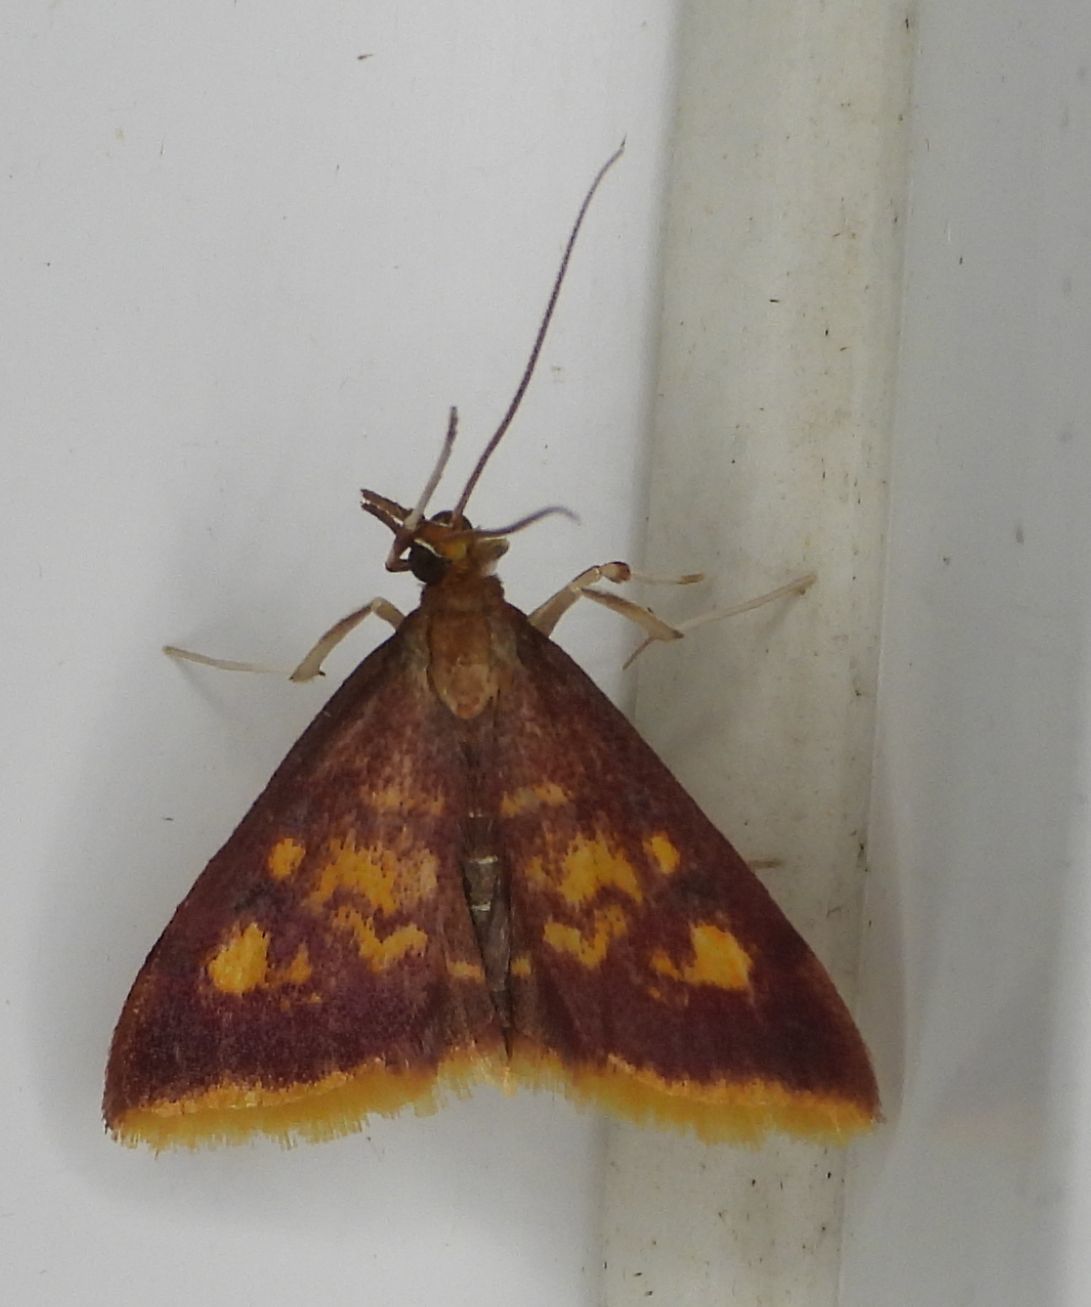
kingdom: Animalia
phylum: Arthropoda
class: Insecta
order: Lepidoptera
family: Crambidae
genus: Pyrausta
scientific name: Pyrausta acrionalis
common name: Mint-loving pyrausta moth
